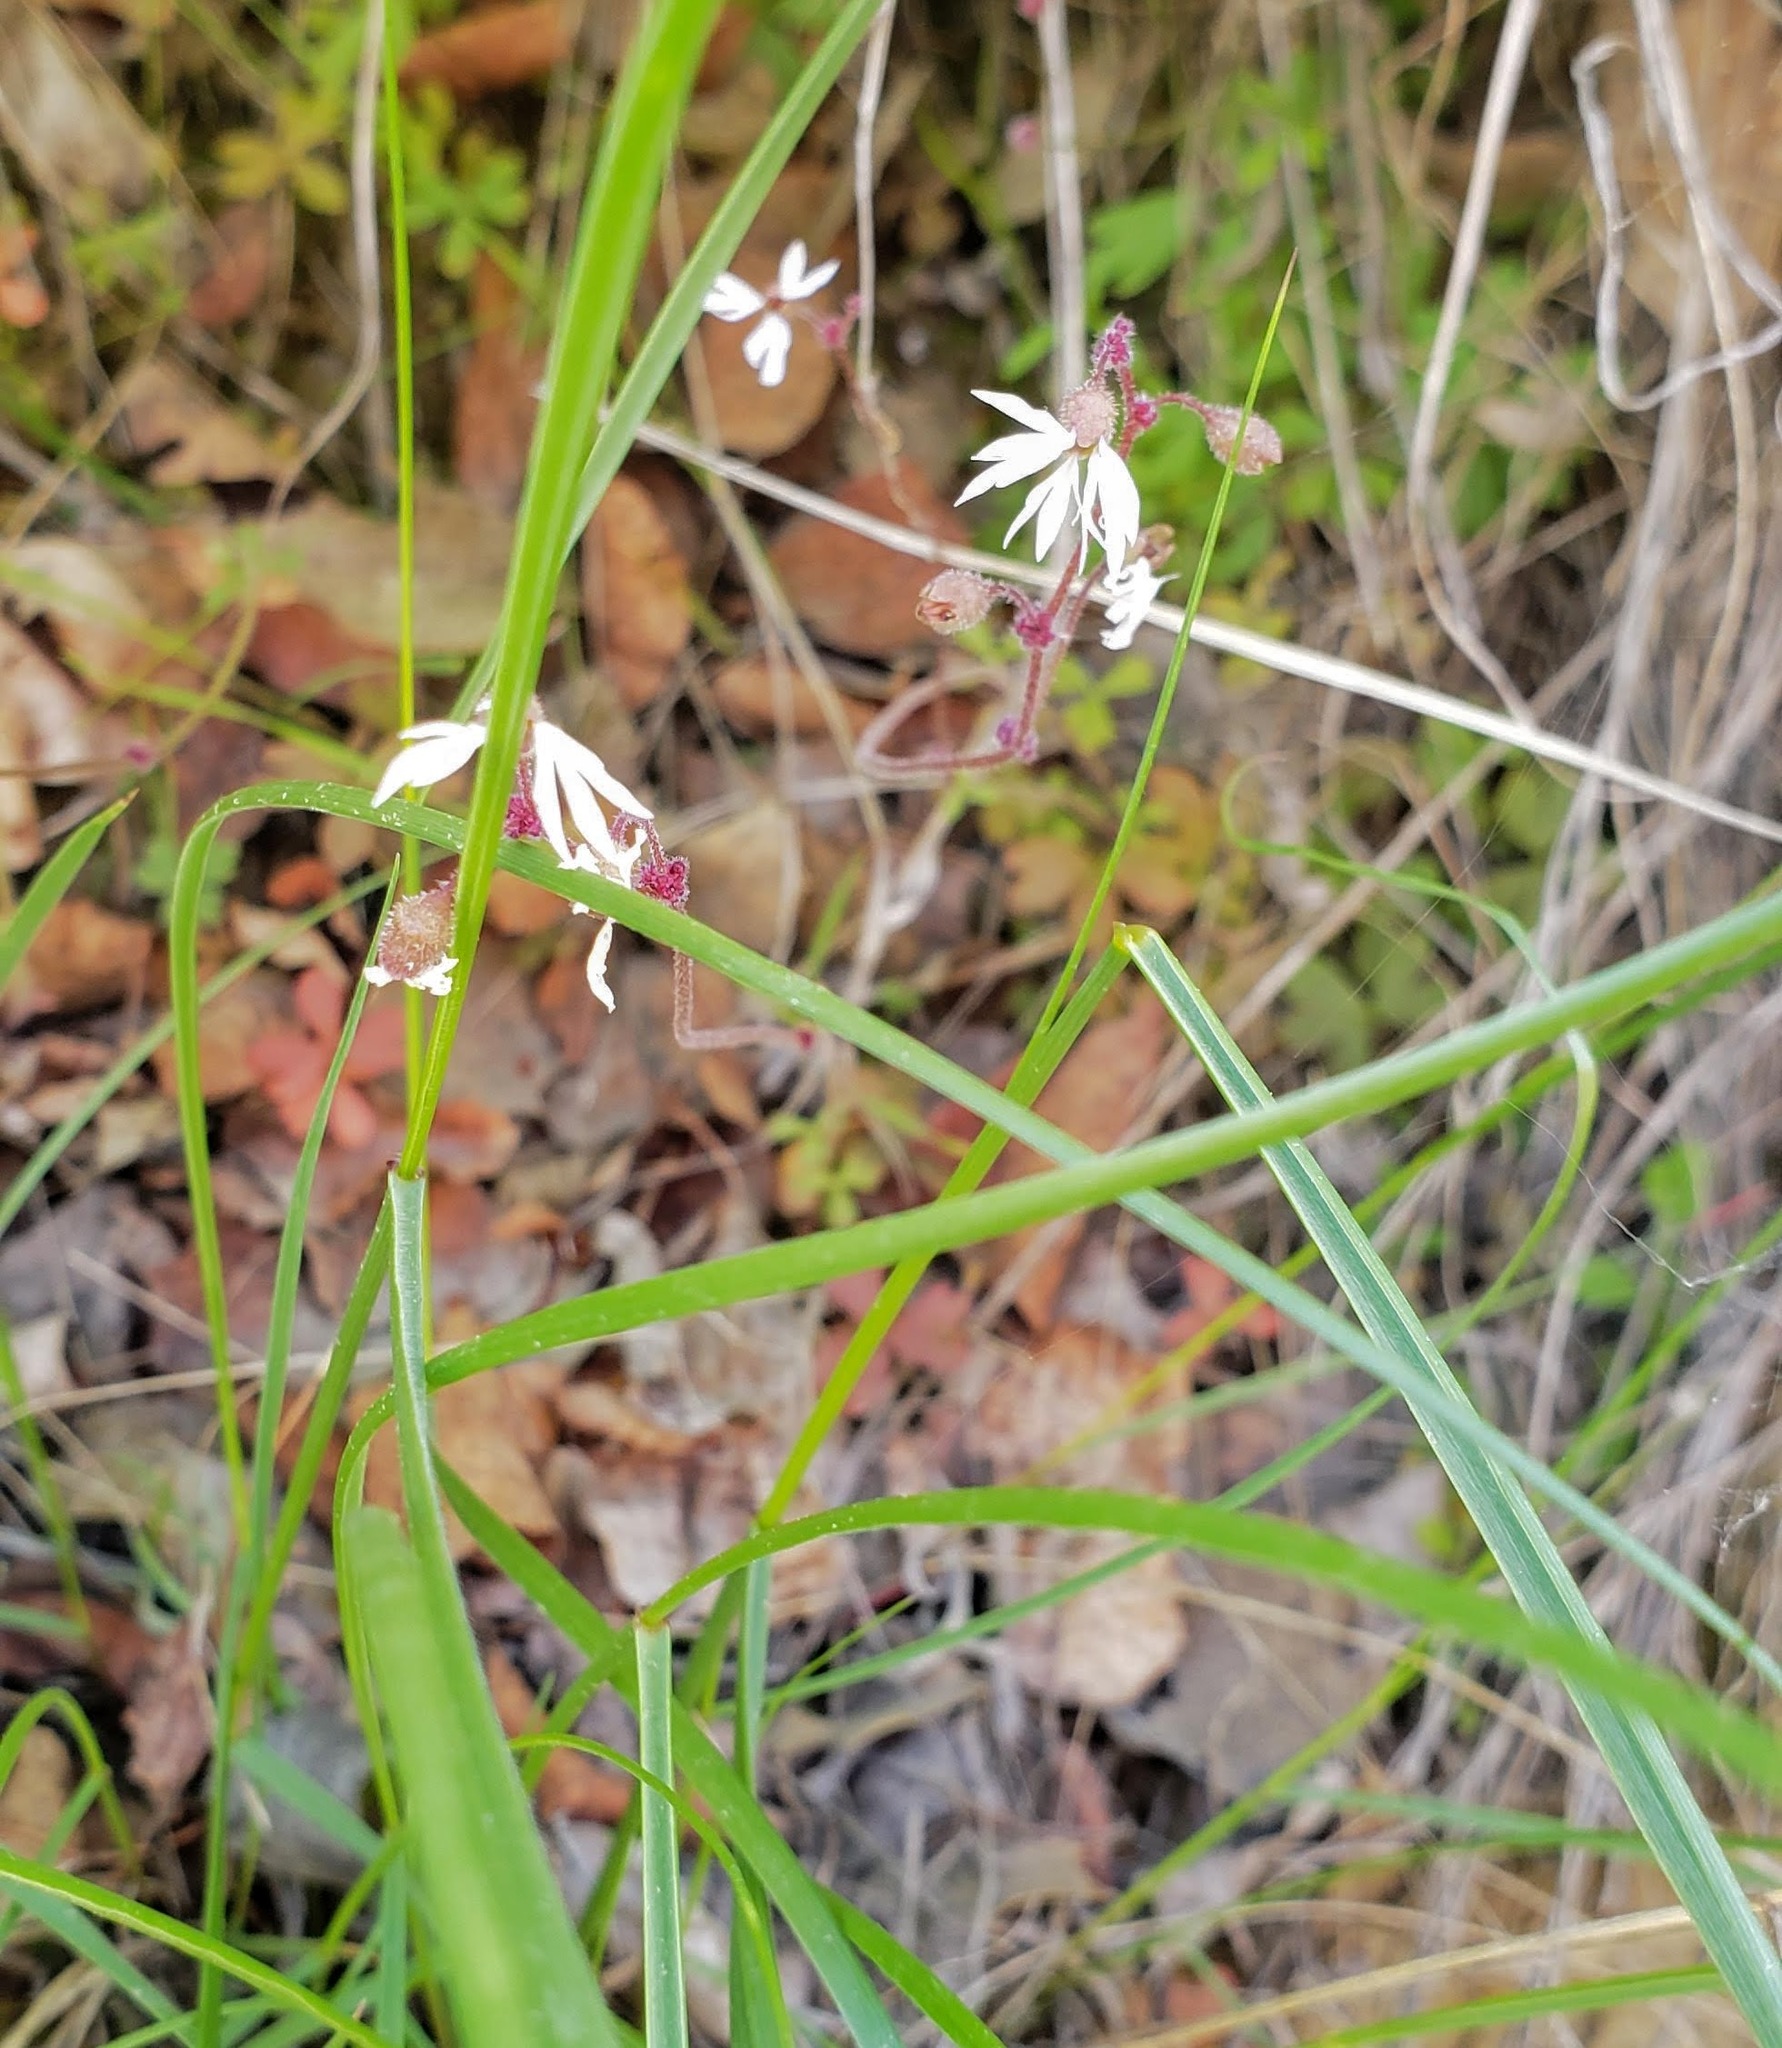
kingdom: Plantae
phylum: Tracheophyta
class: Magnoliopsida
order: Saxifragales
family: Saxifragaceae
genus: Lithophragma
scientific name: Lithophragma glabrum
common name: Bulbous prairie-star
